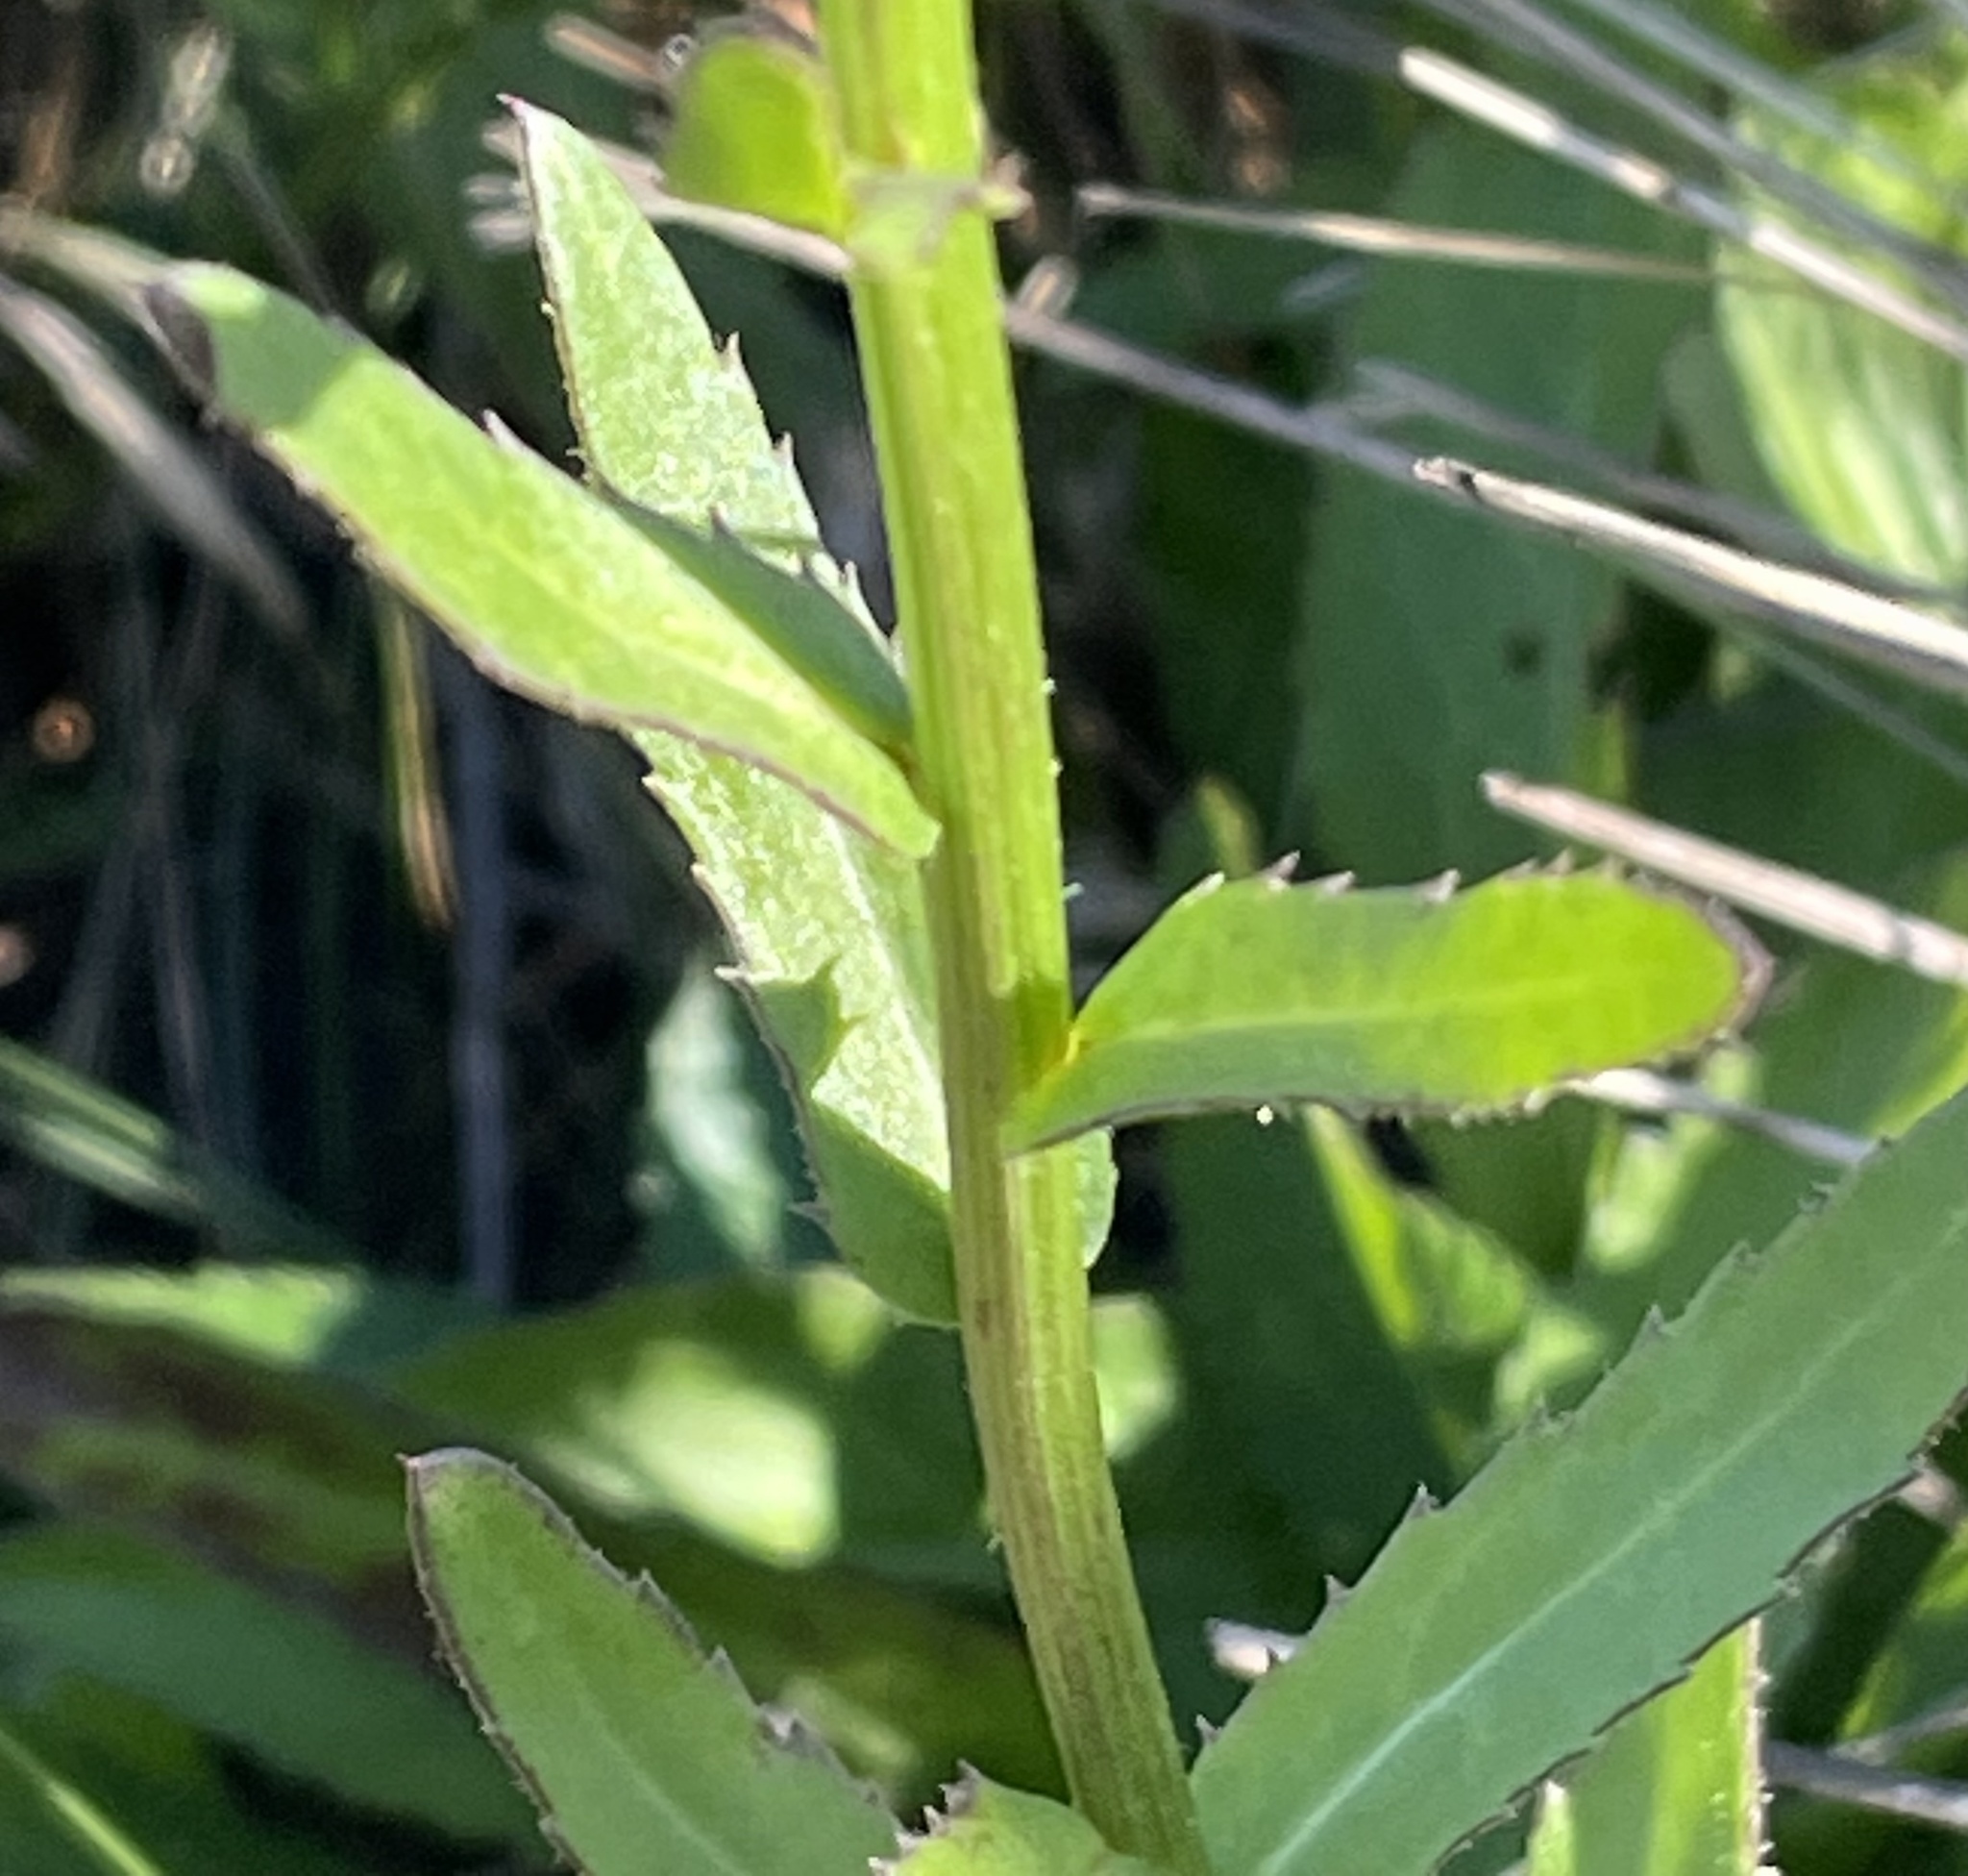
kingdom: Plantae
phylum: Tracheophyta
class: Magnoliopsida
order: Asterales
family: Asteraceae
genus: Leucanthemum
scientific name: Leucanthemum maximum
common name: Max chrysanthemum
